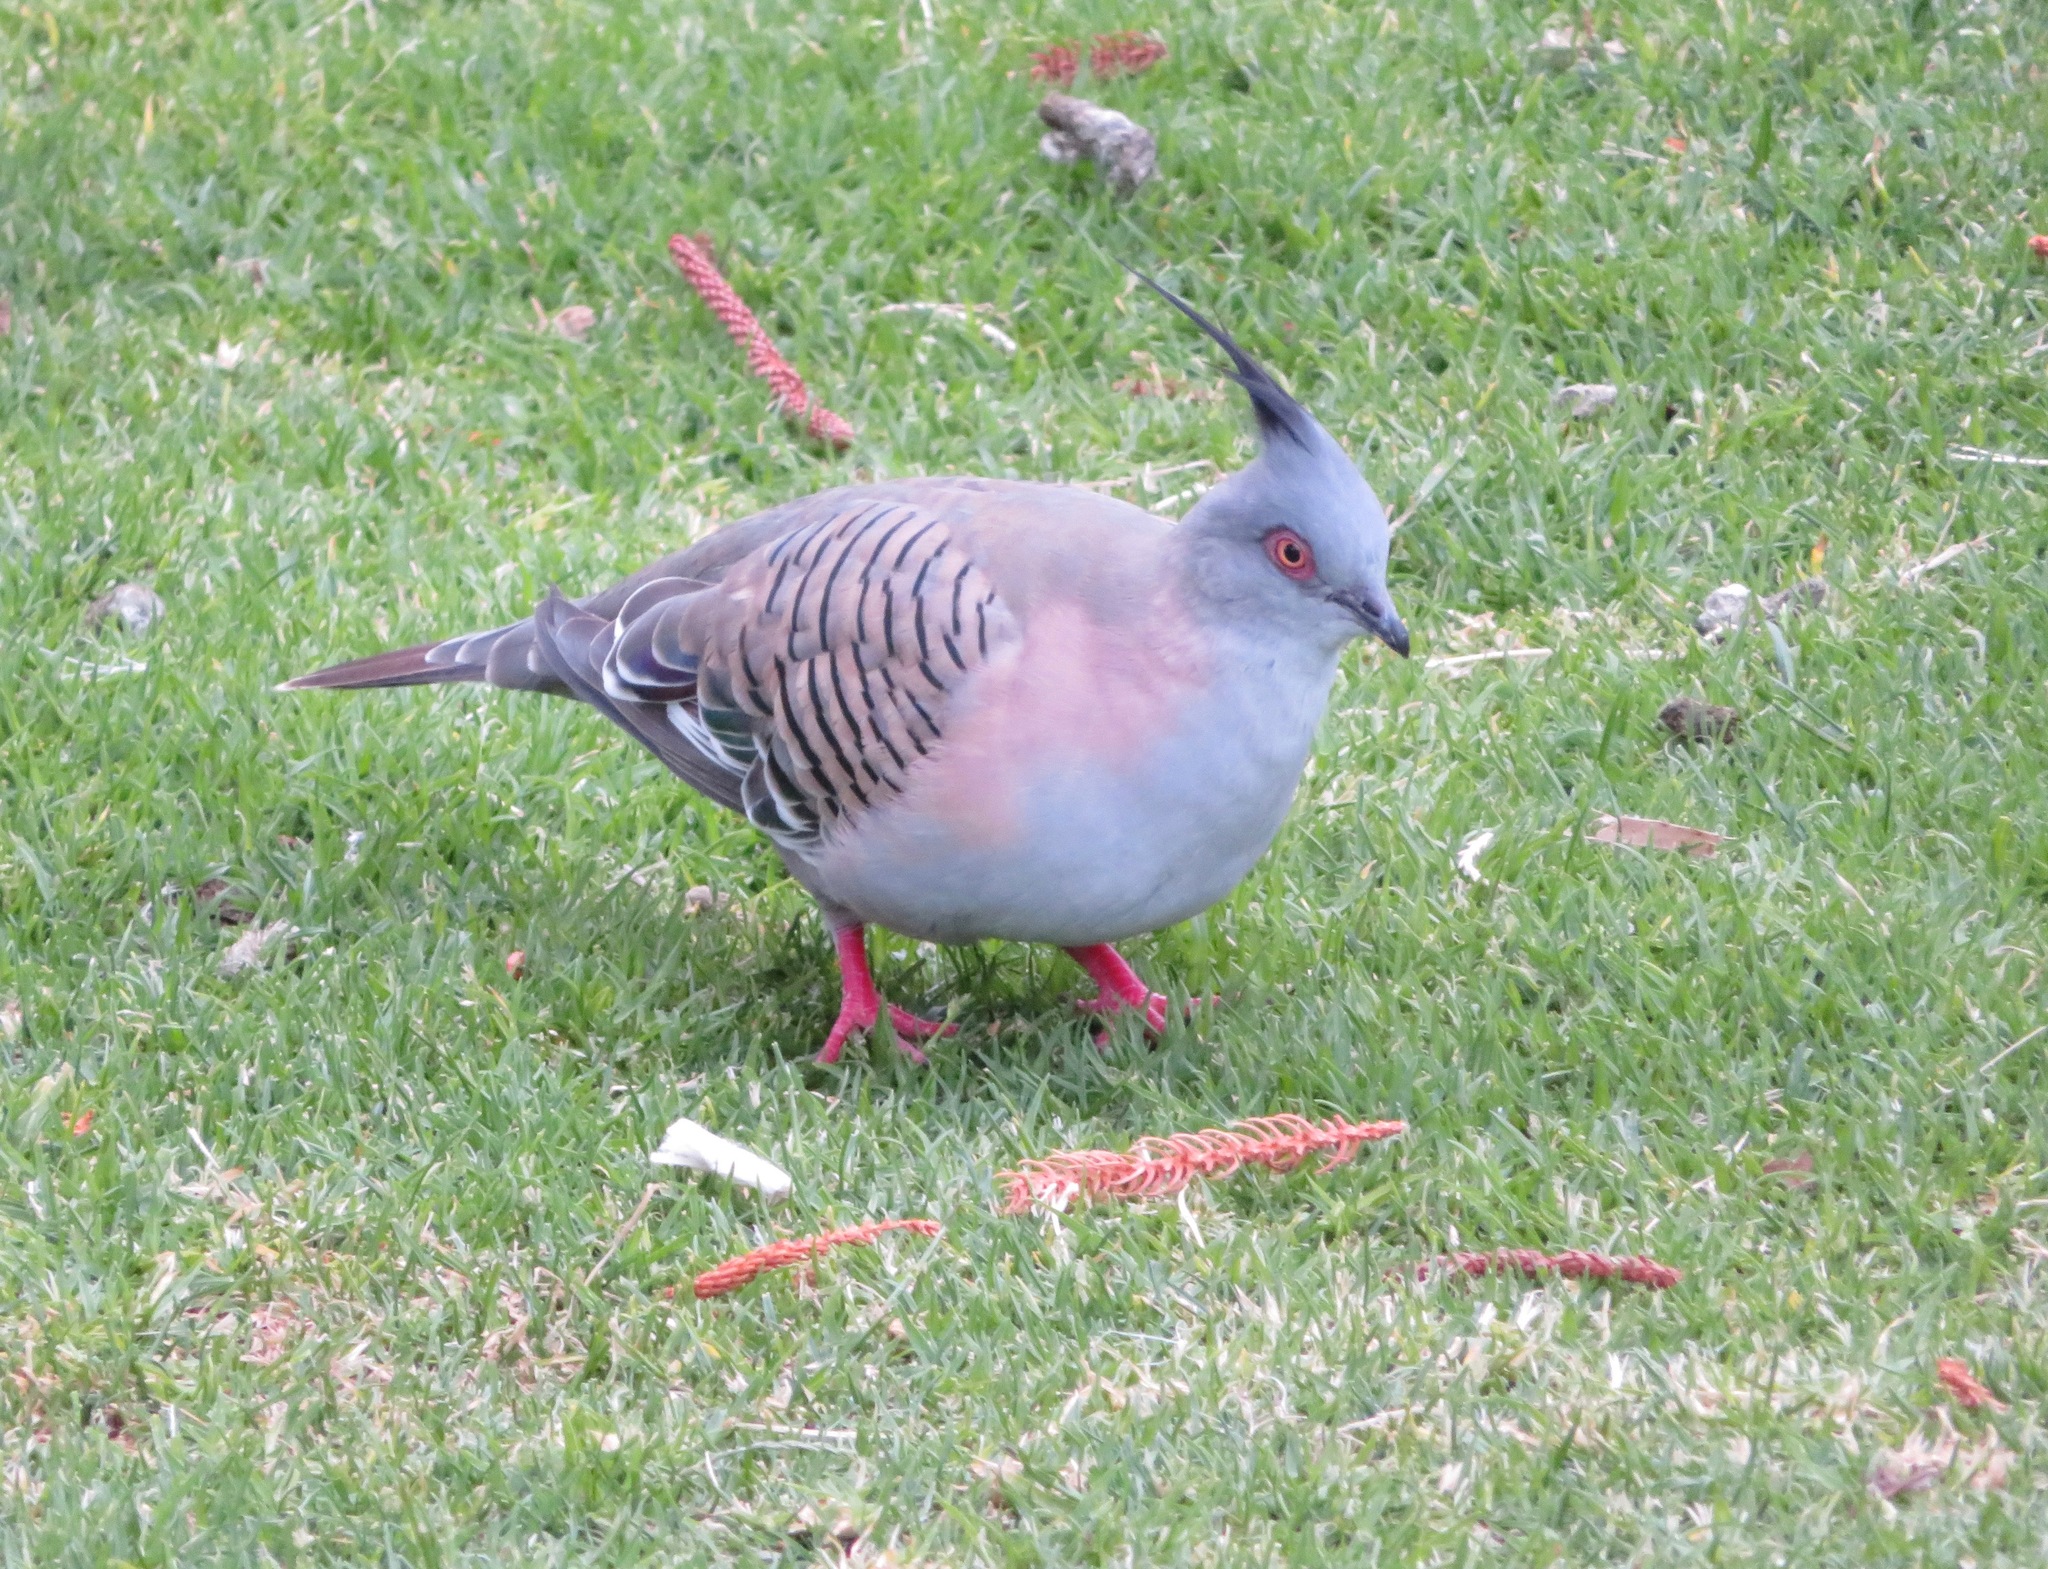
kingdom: Animalia
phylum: Chordata
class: Aves
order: Columbiformes
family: Columbidae
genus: Ocyphaps
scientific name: Ocyphaps lophotes
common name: Crested pigeon
